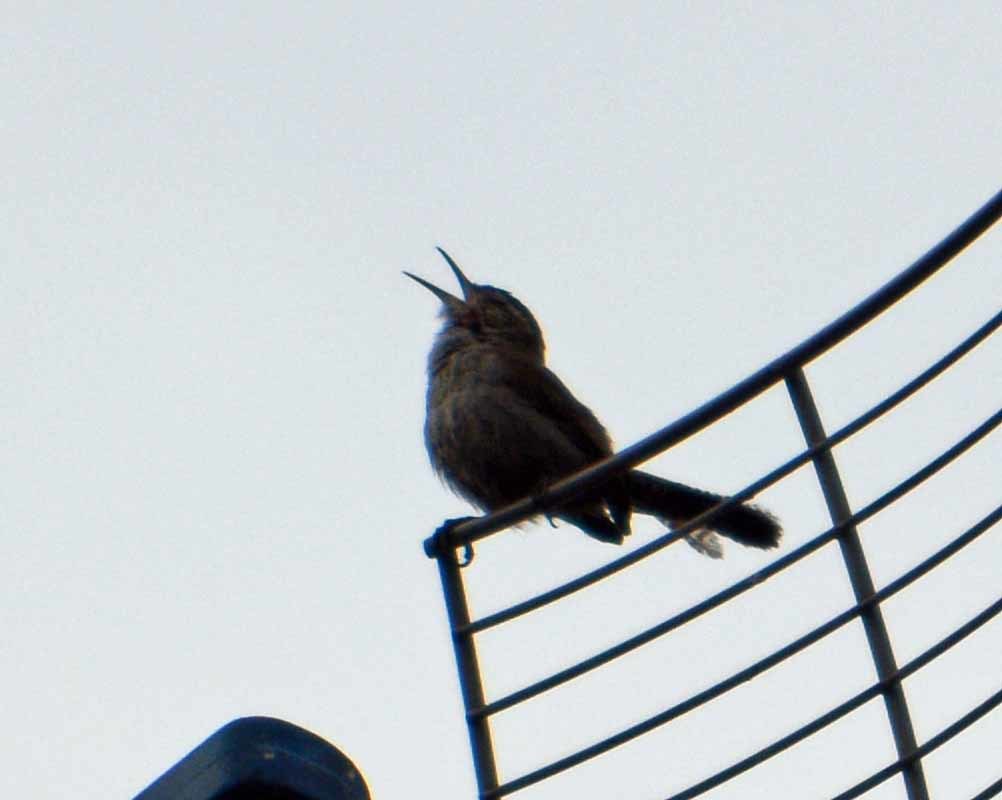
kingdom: Animalia
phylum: Chordata
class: Aves
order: Passeriformes
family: Troglodytidae
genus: Thryomanes
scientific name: Thryomanes bewickii
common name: Bewick's wren
